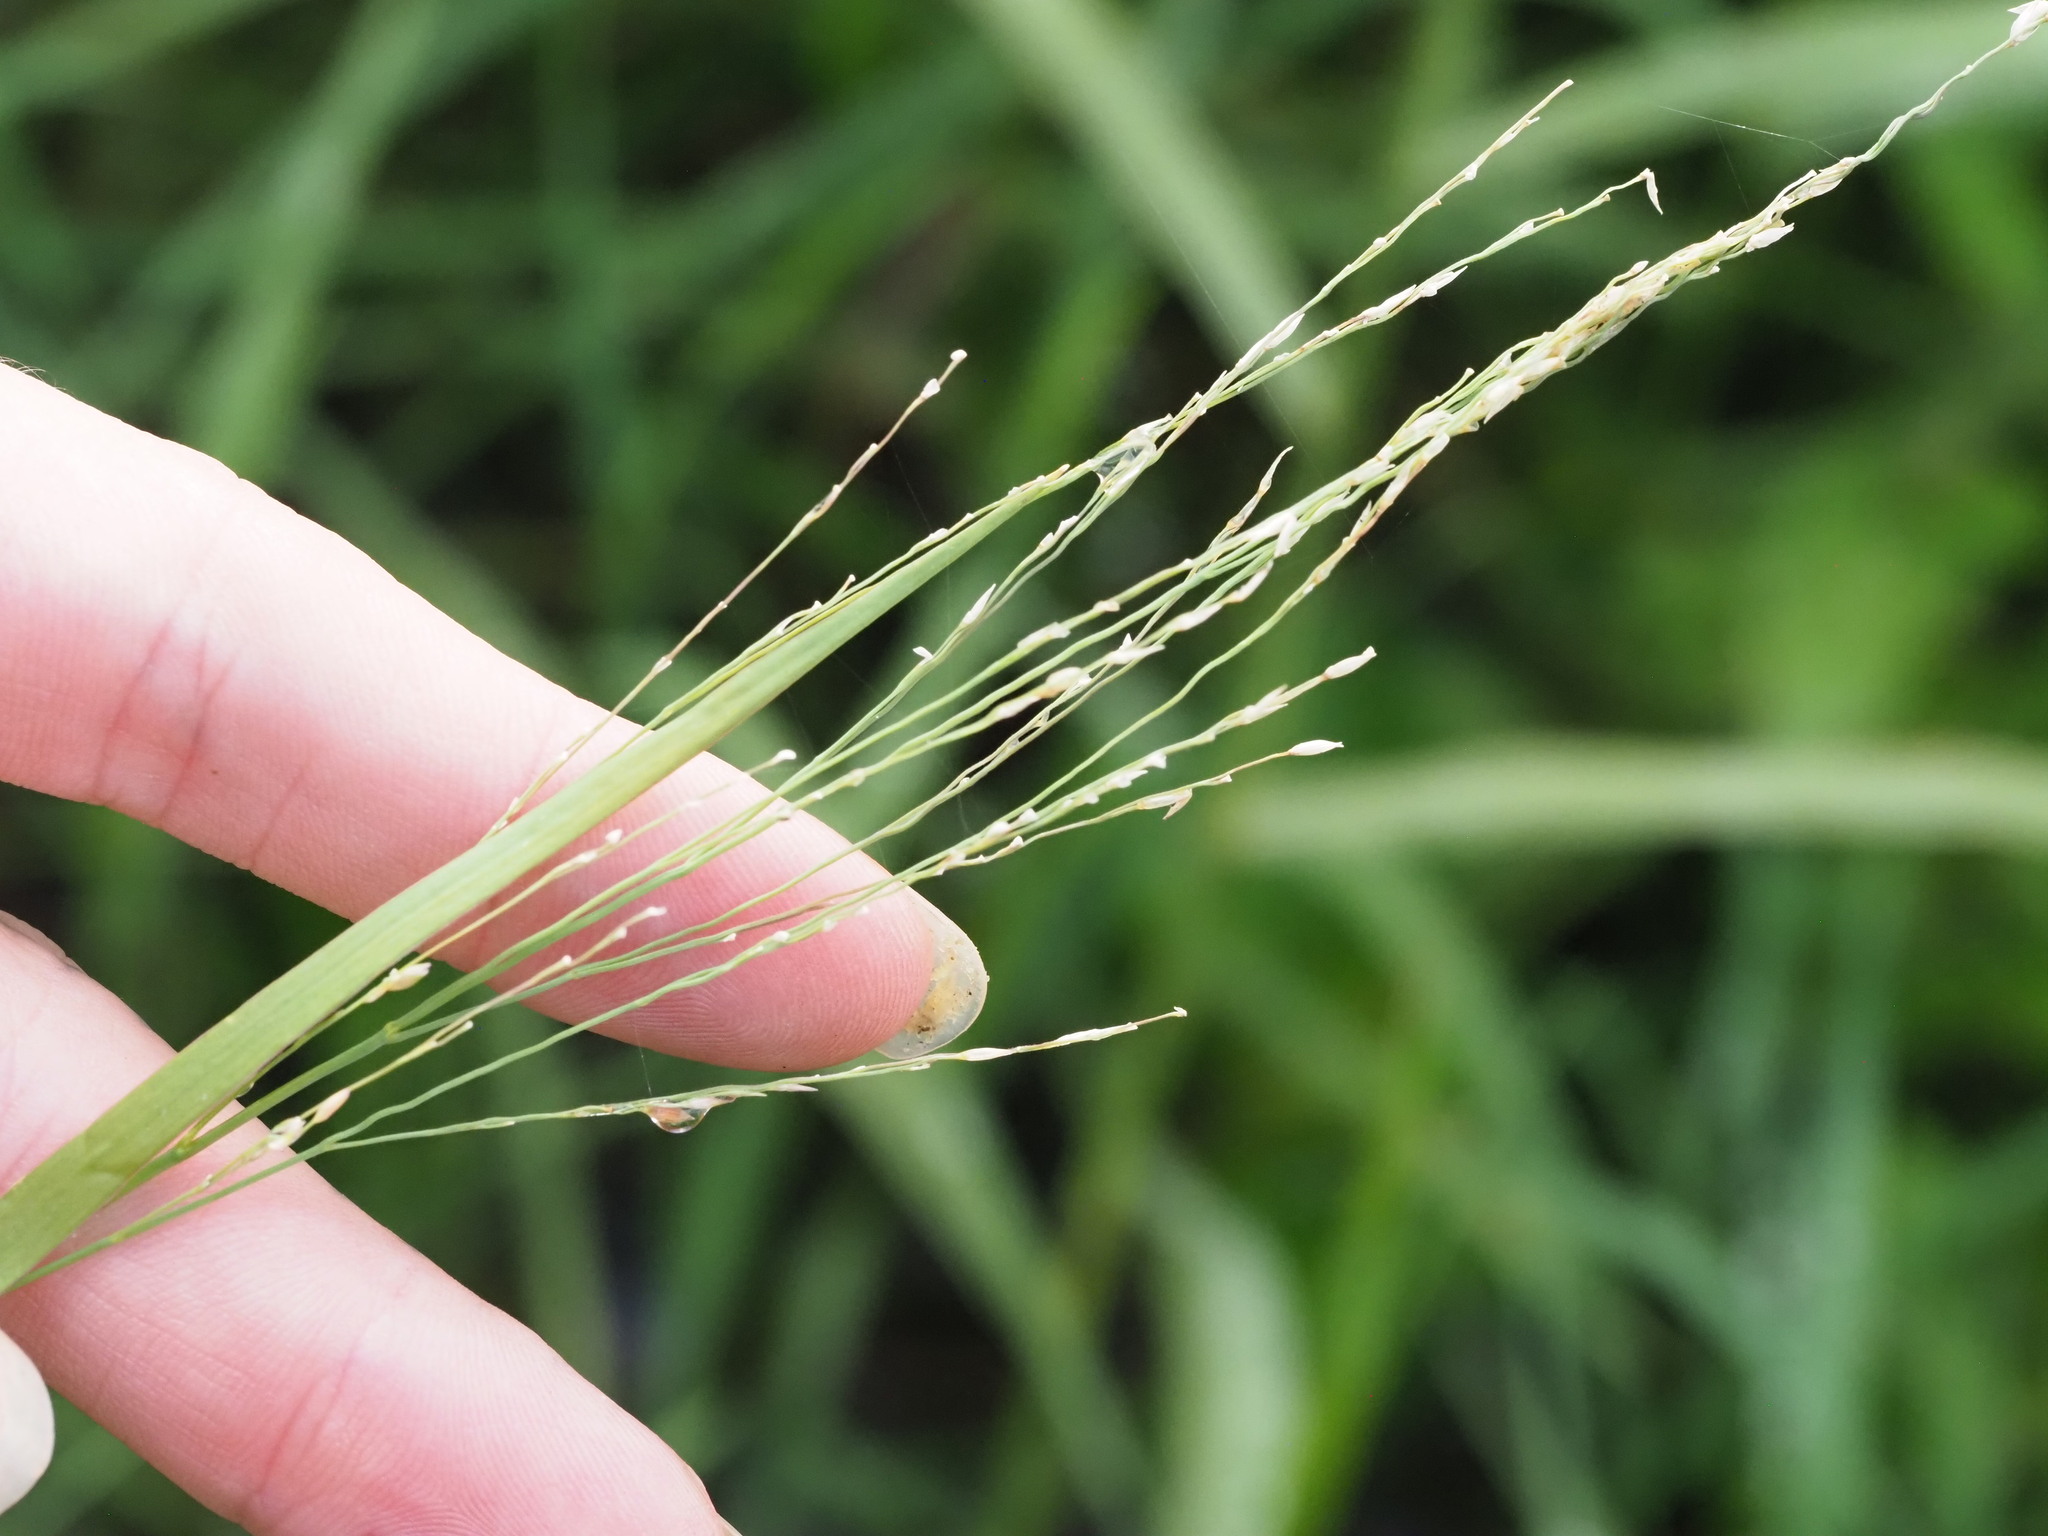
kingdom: Plantae
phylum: Tracheophyta
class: Liliopsida
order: Poales
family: Poaceae
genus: Panicum
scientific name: Panicum repens
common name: Torpedo grass
